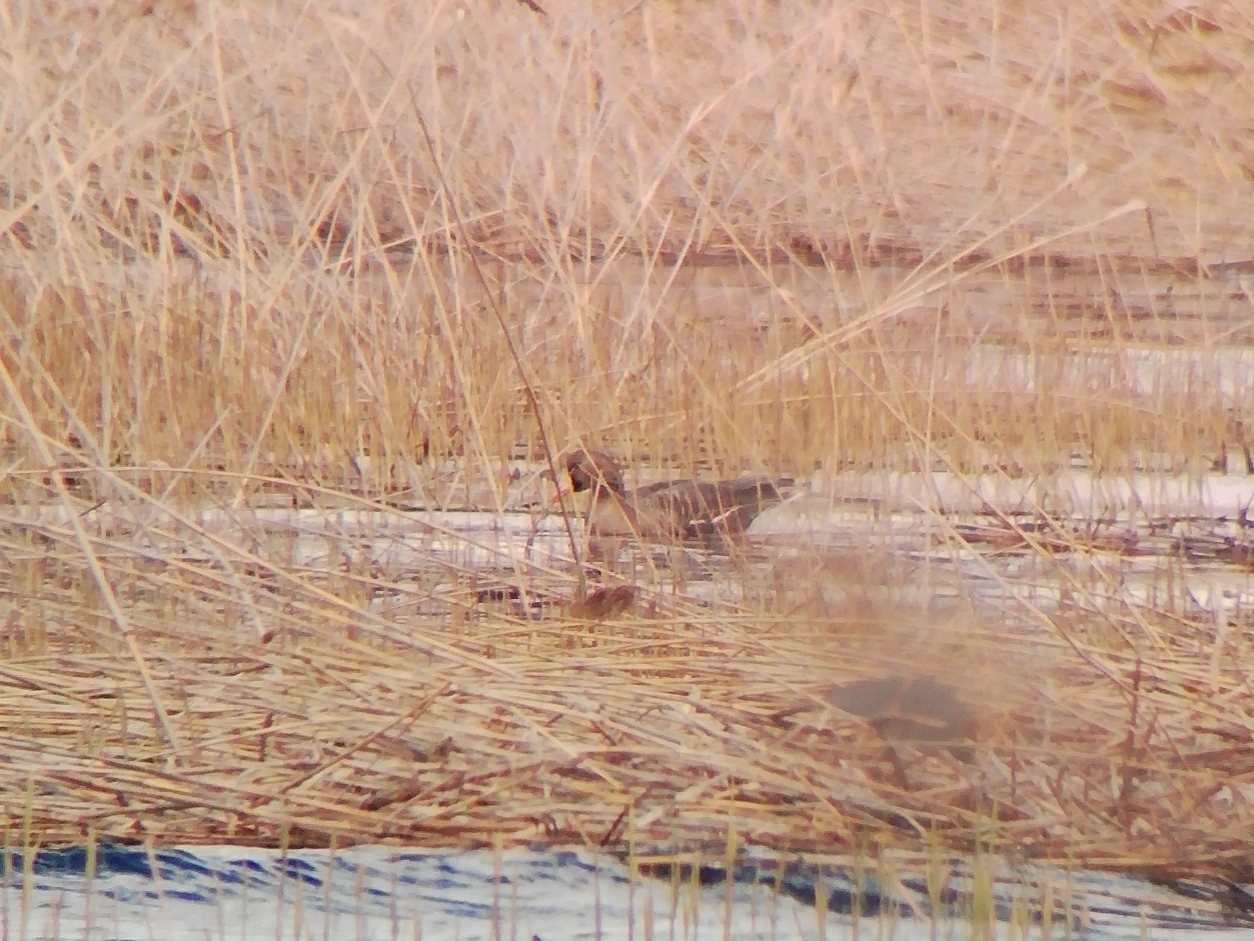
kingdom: Animalia
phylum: Chordata
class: Aves
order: Anseriformes
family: Anatidae
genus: Anser
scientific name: Anser albifrons
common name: Greater white-fronted goose
